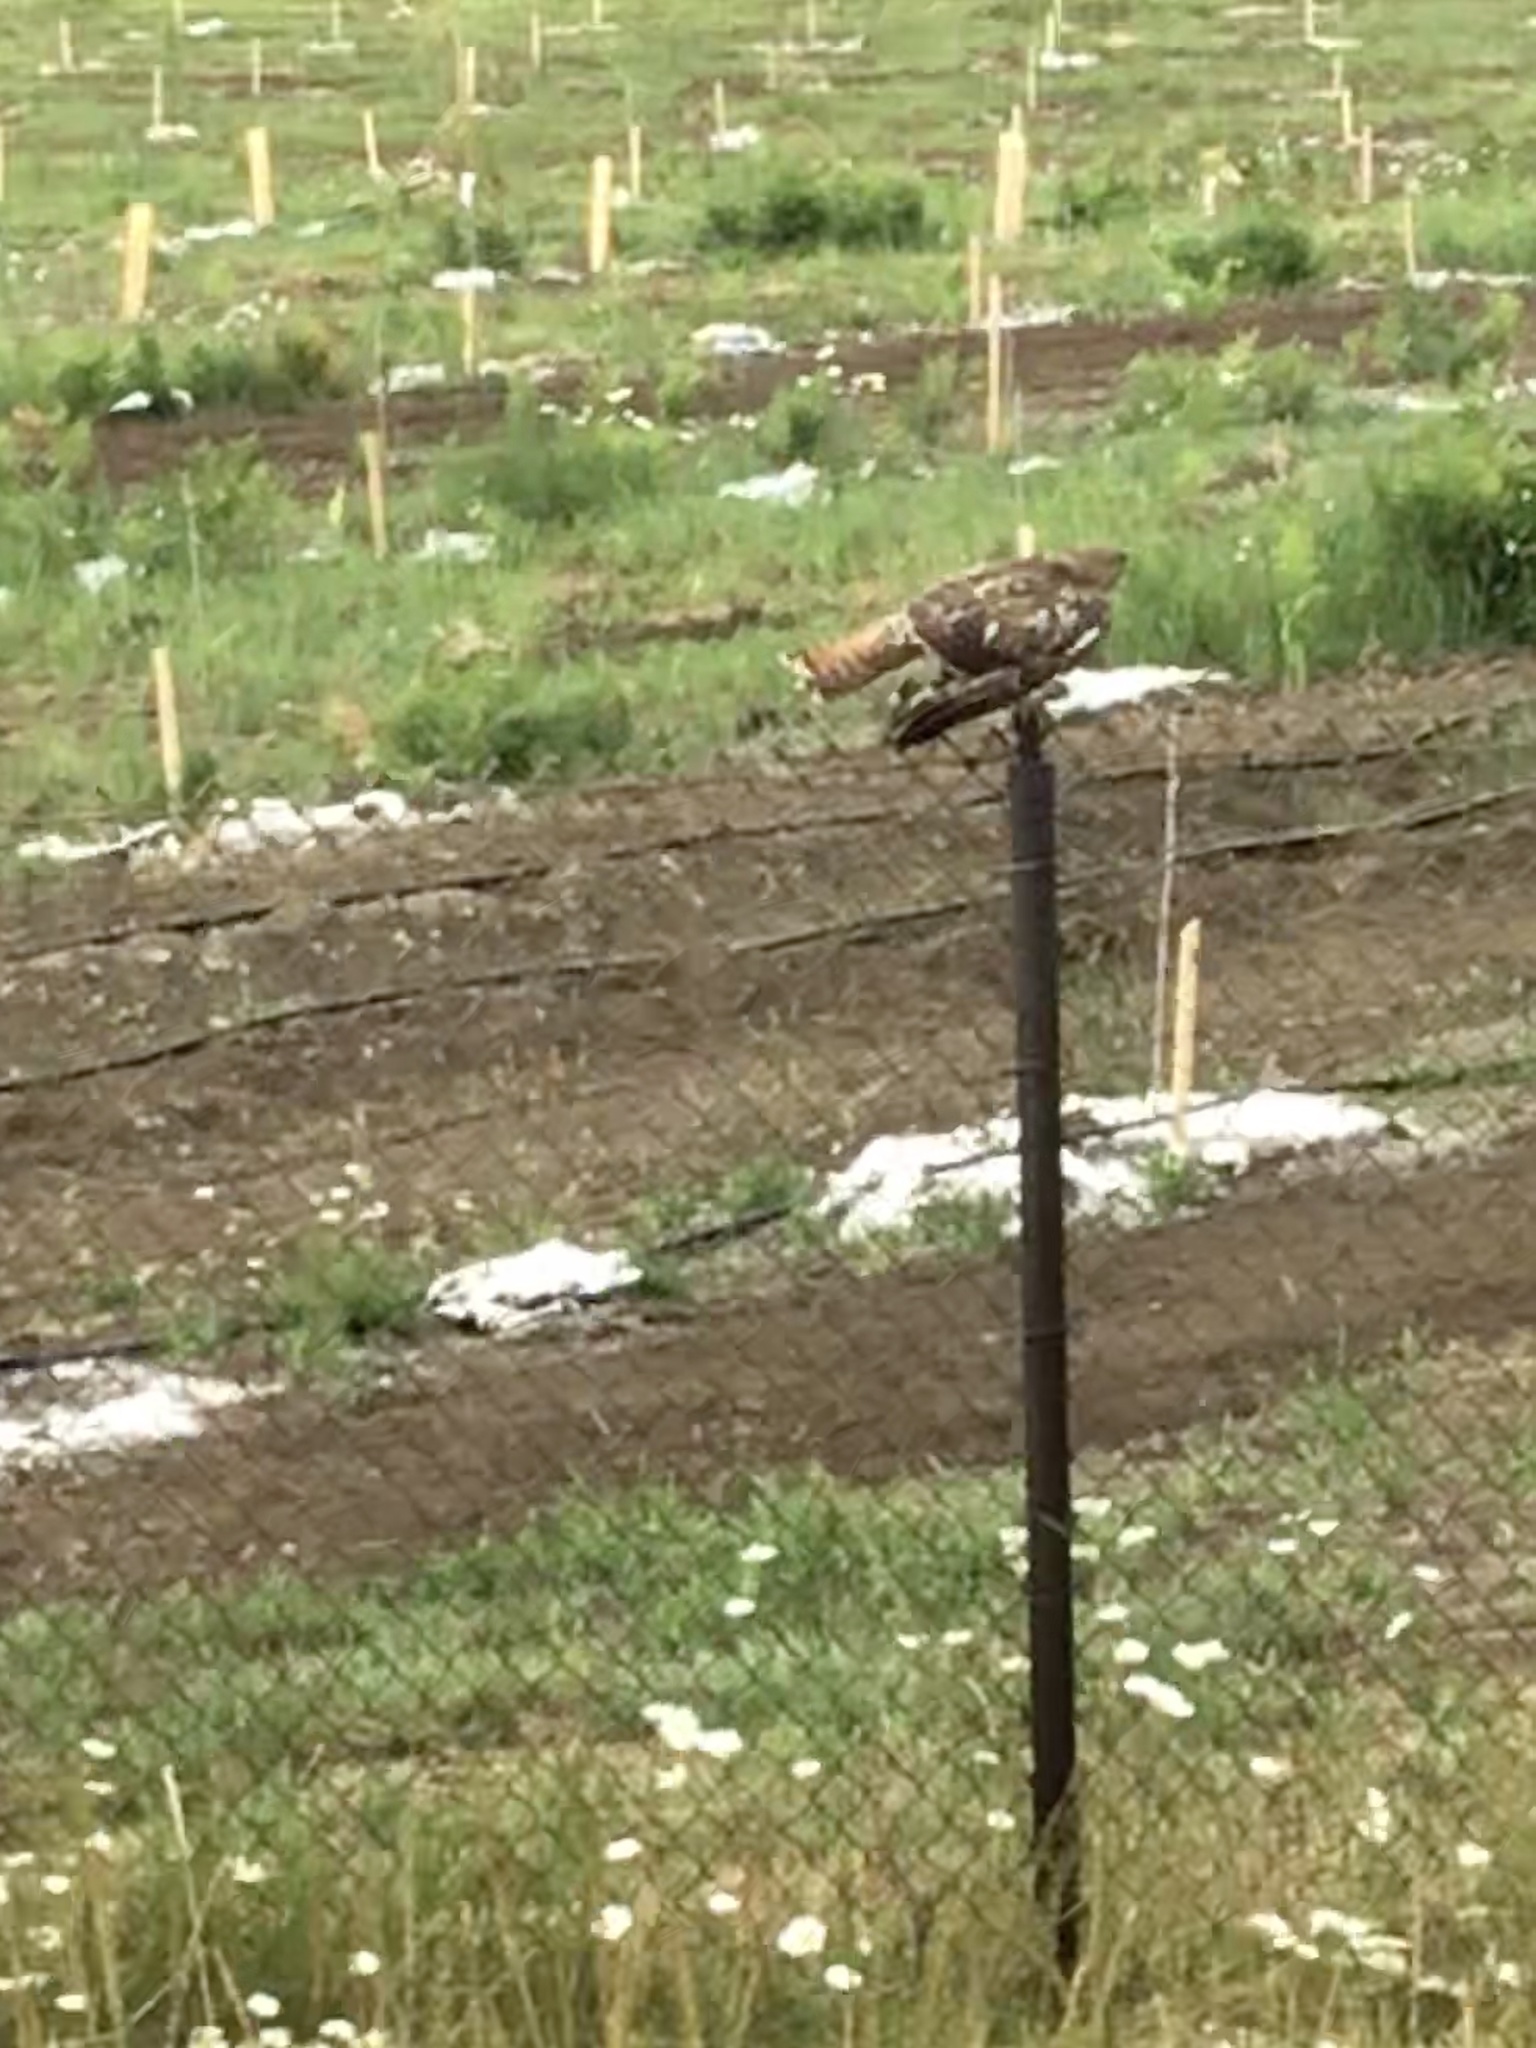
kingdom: Animalia
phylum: Chordata
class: Aves
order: Accipitriformes
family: Accipitridae
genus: Buteo
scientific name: Buteo jamaicensis
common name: Red-tailed hawk
